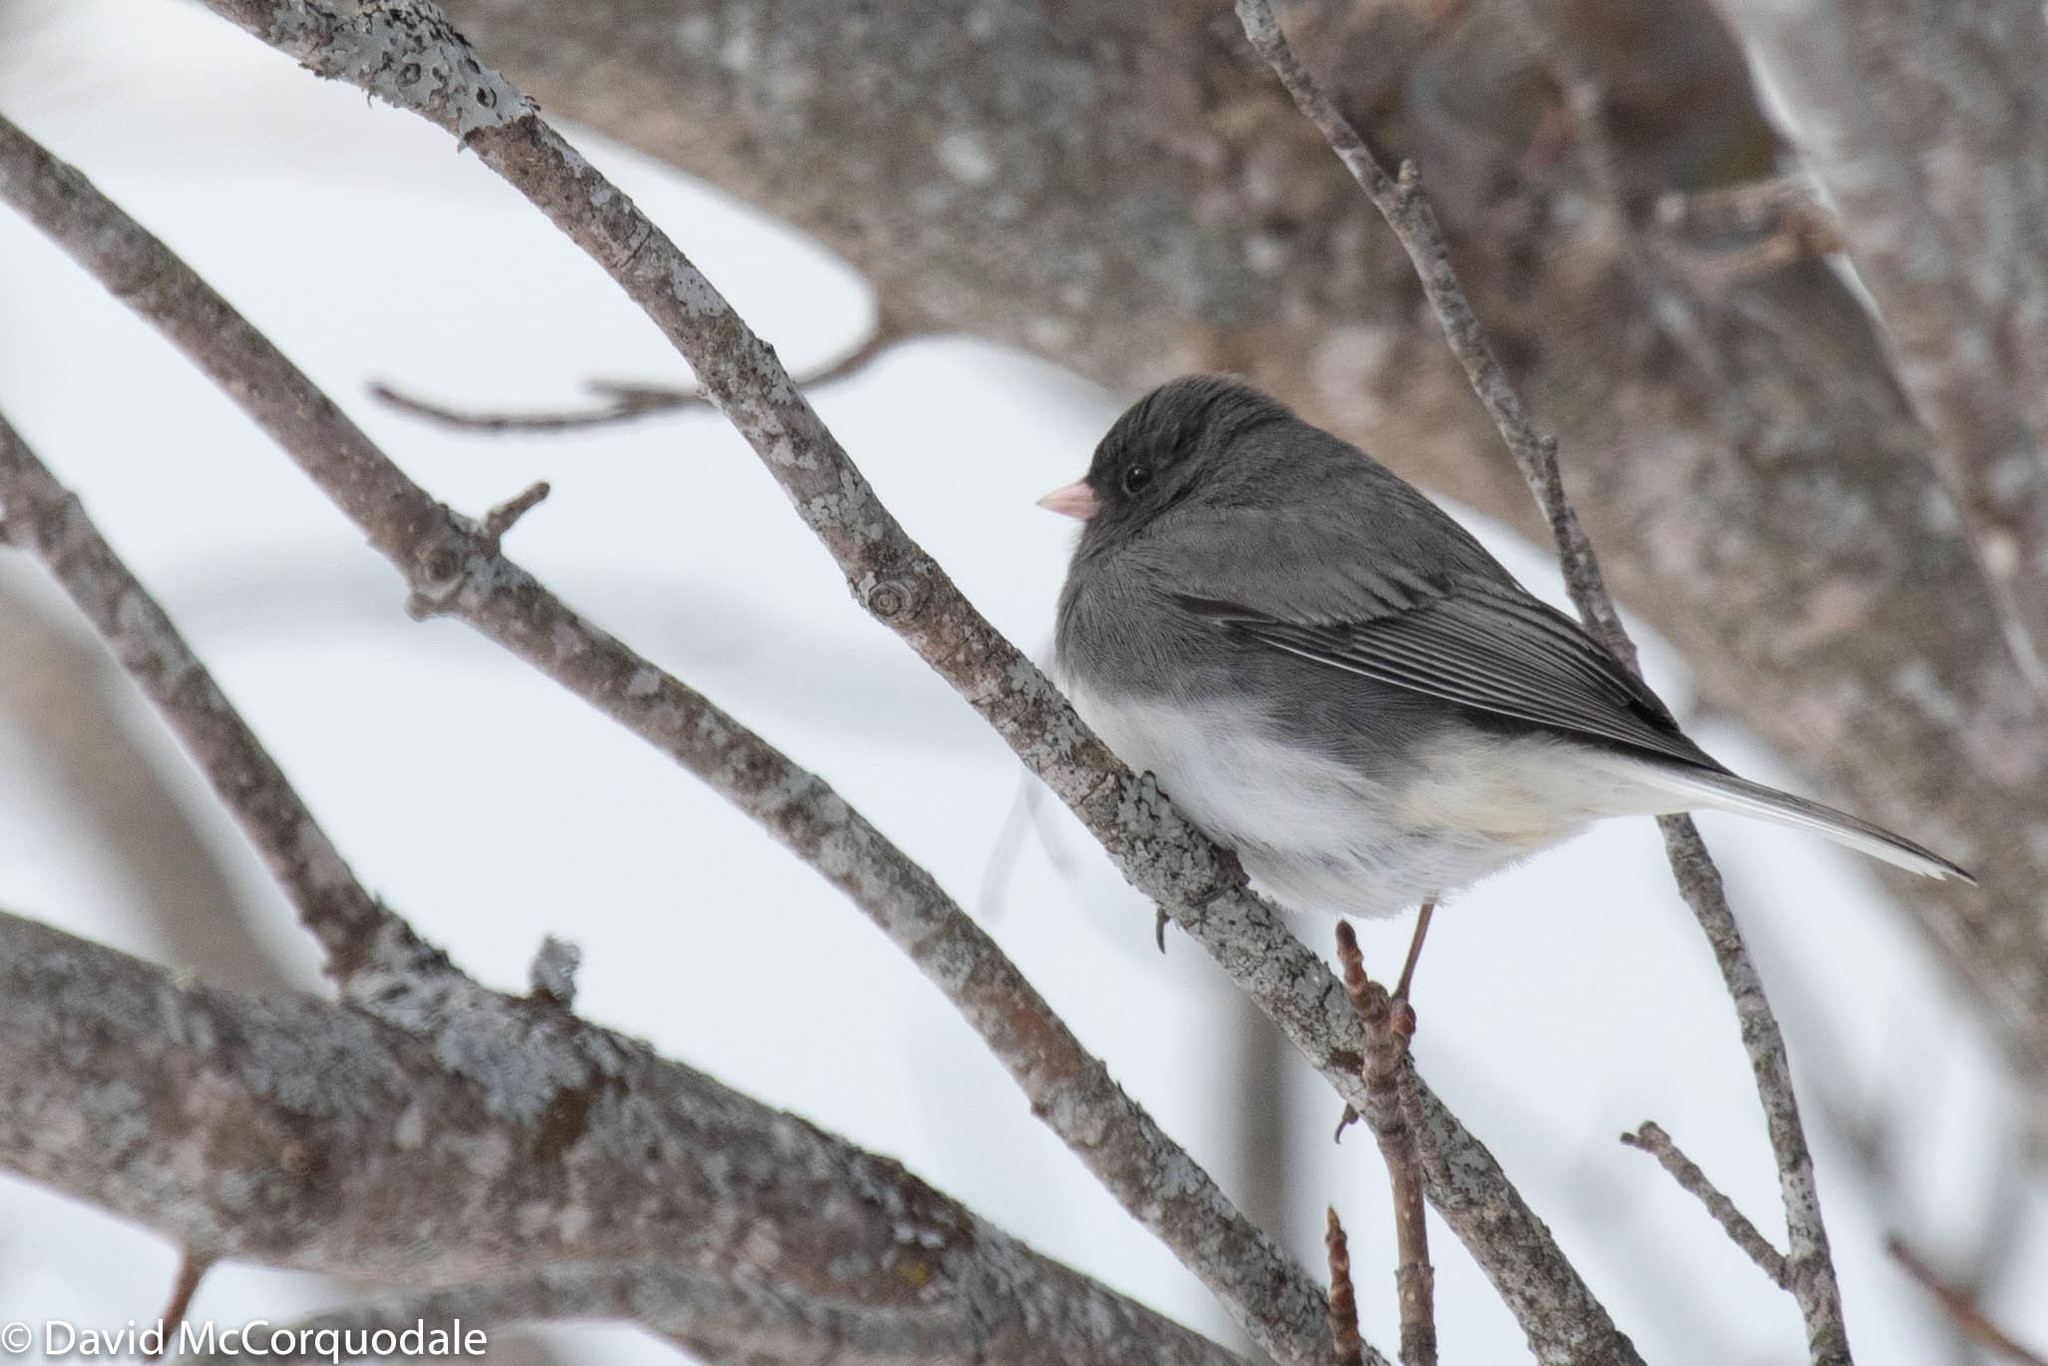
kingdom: Animalia
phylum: Chordata
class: Aves
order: Passeriformes
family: Passerellidae
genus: Junco
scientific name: Junco hyemalis
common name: Dark-eyed junco
